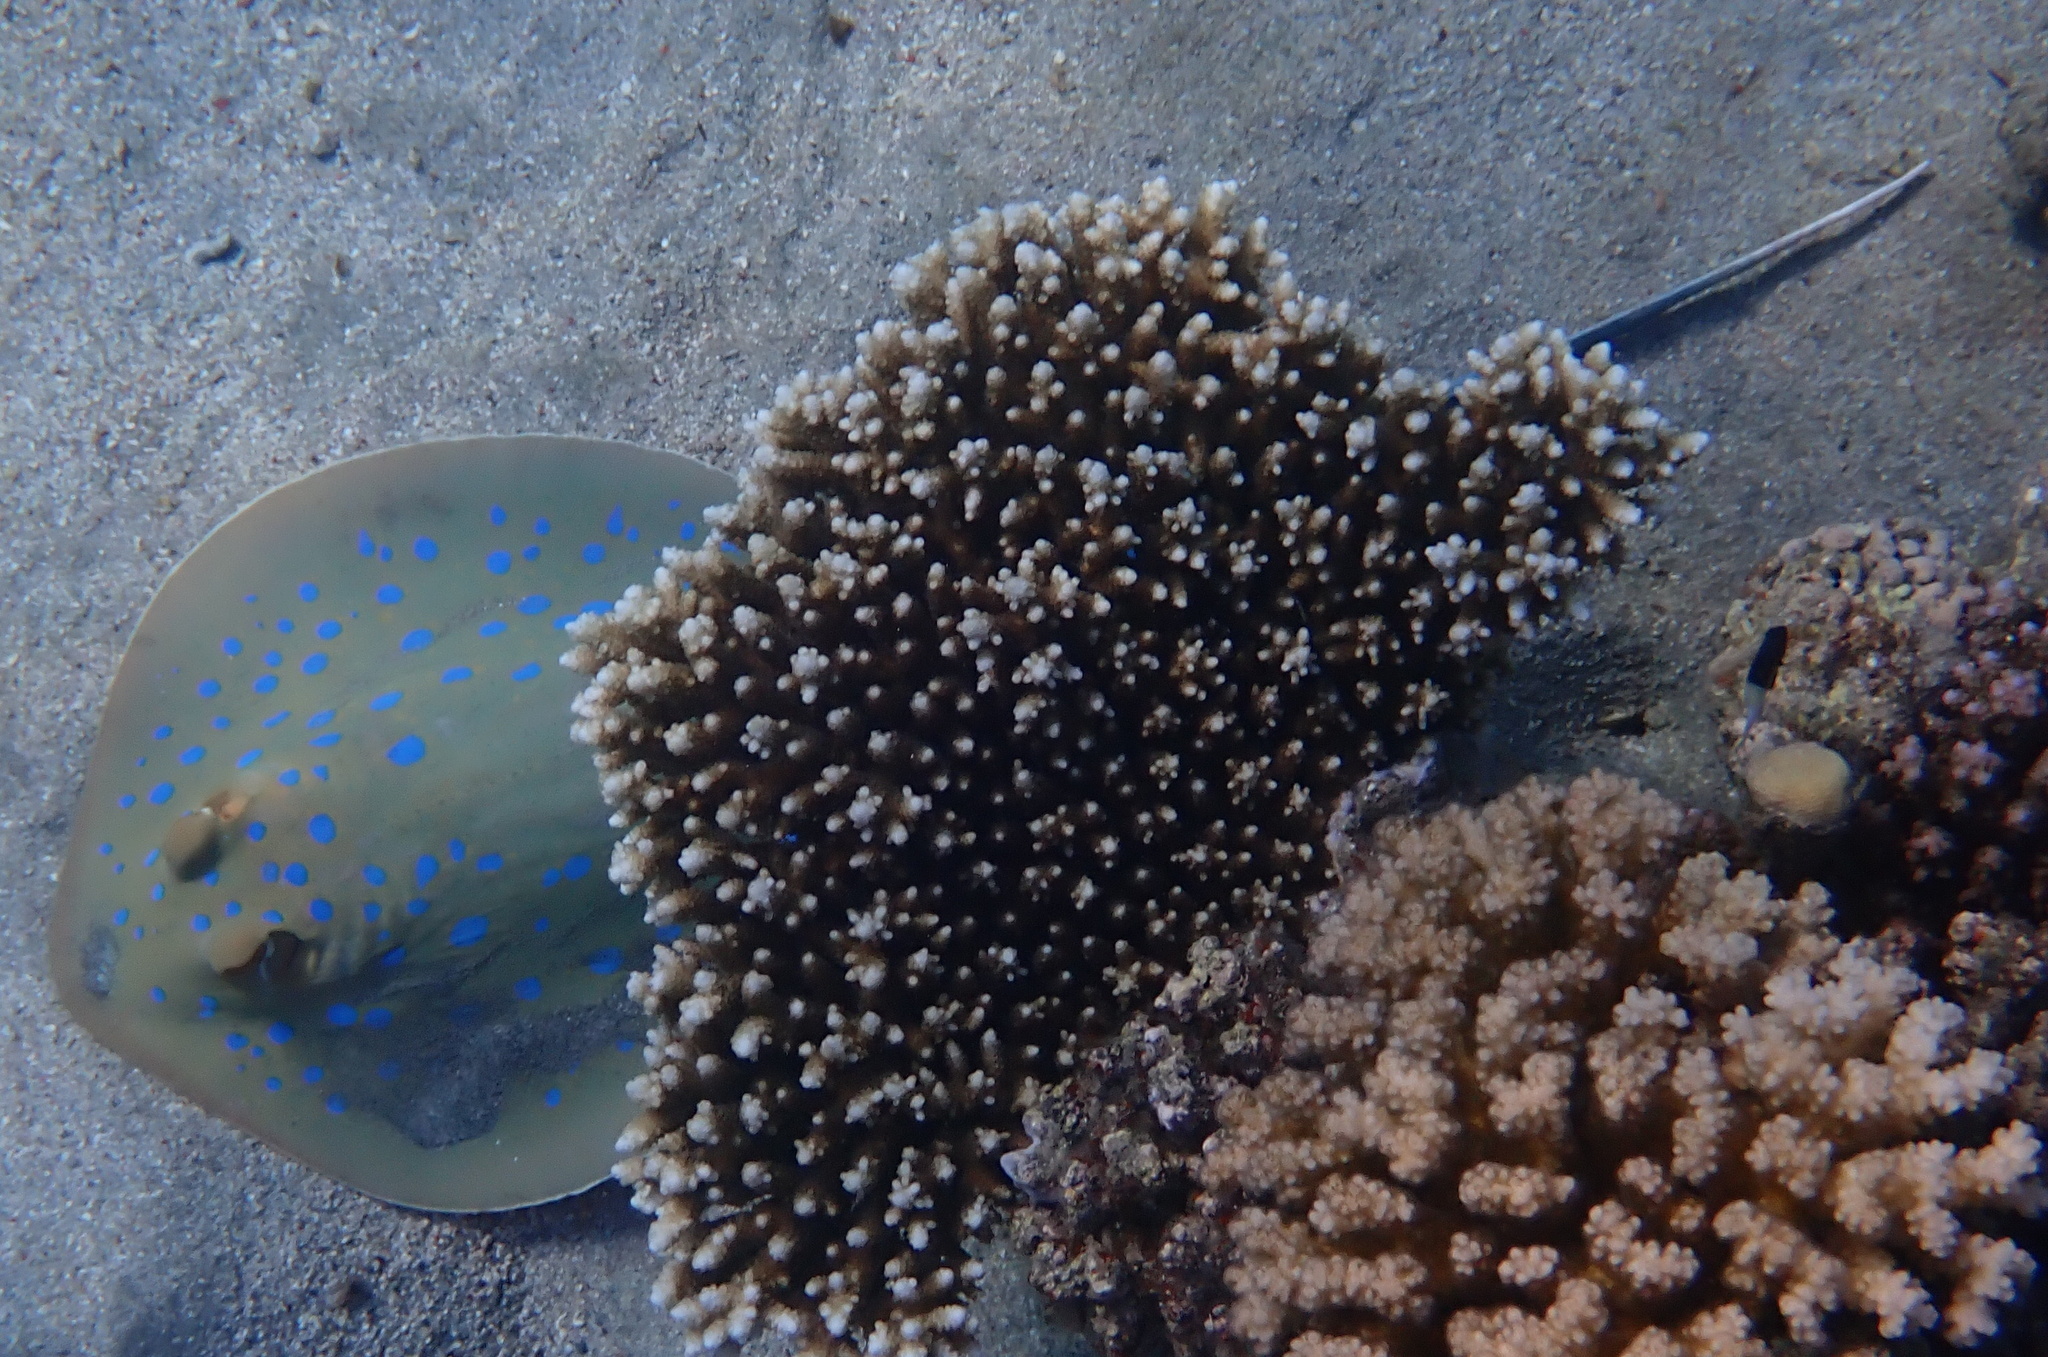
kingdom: Animalia
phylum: Chordata
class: Elasmobranchii
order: Myliobatiformes
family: Dasyatidae
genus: Taeniura
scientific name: Taeniura lymma
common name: Bluespotted ribbontail ray
